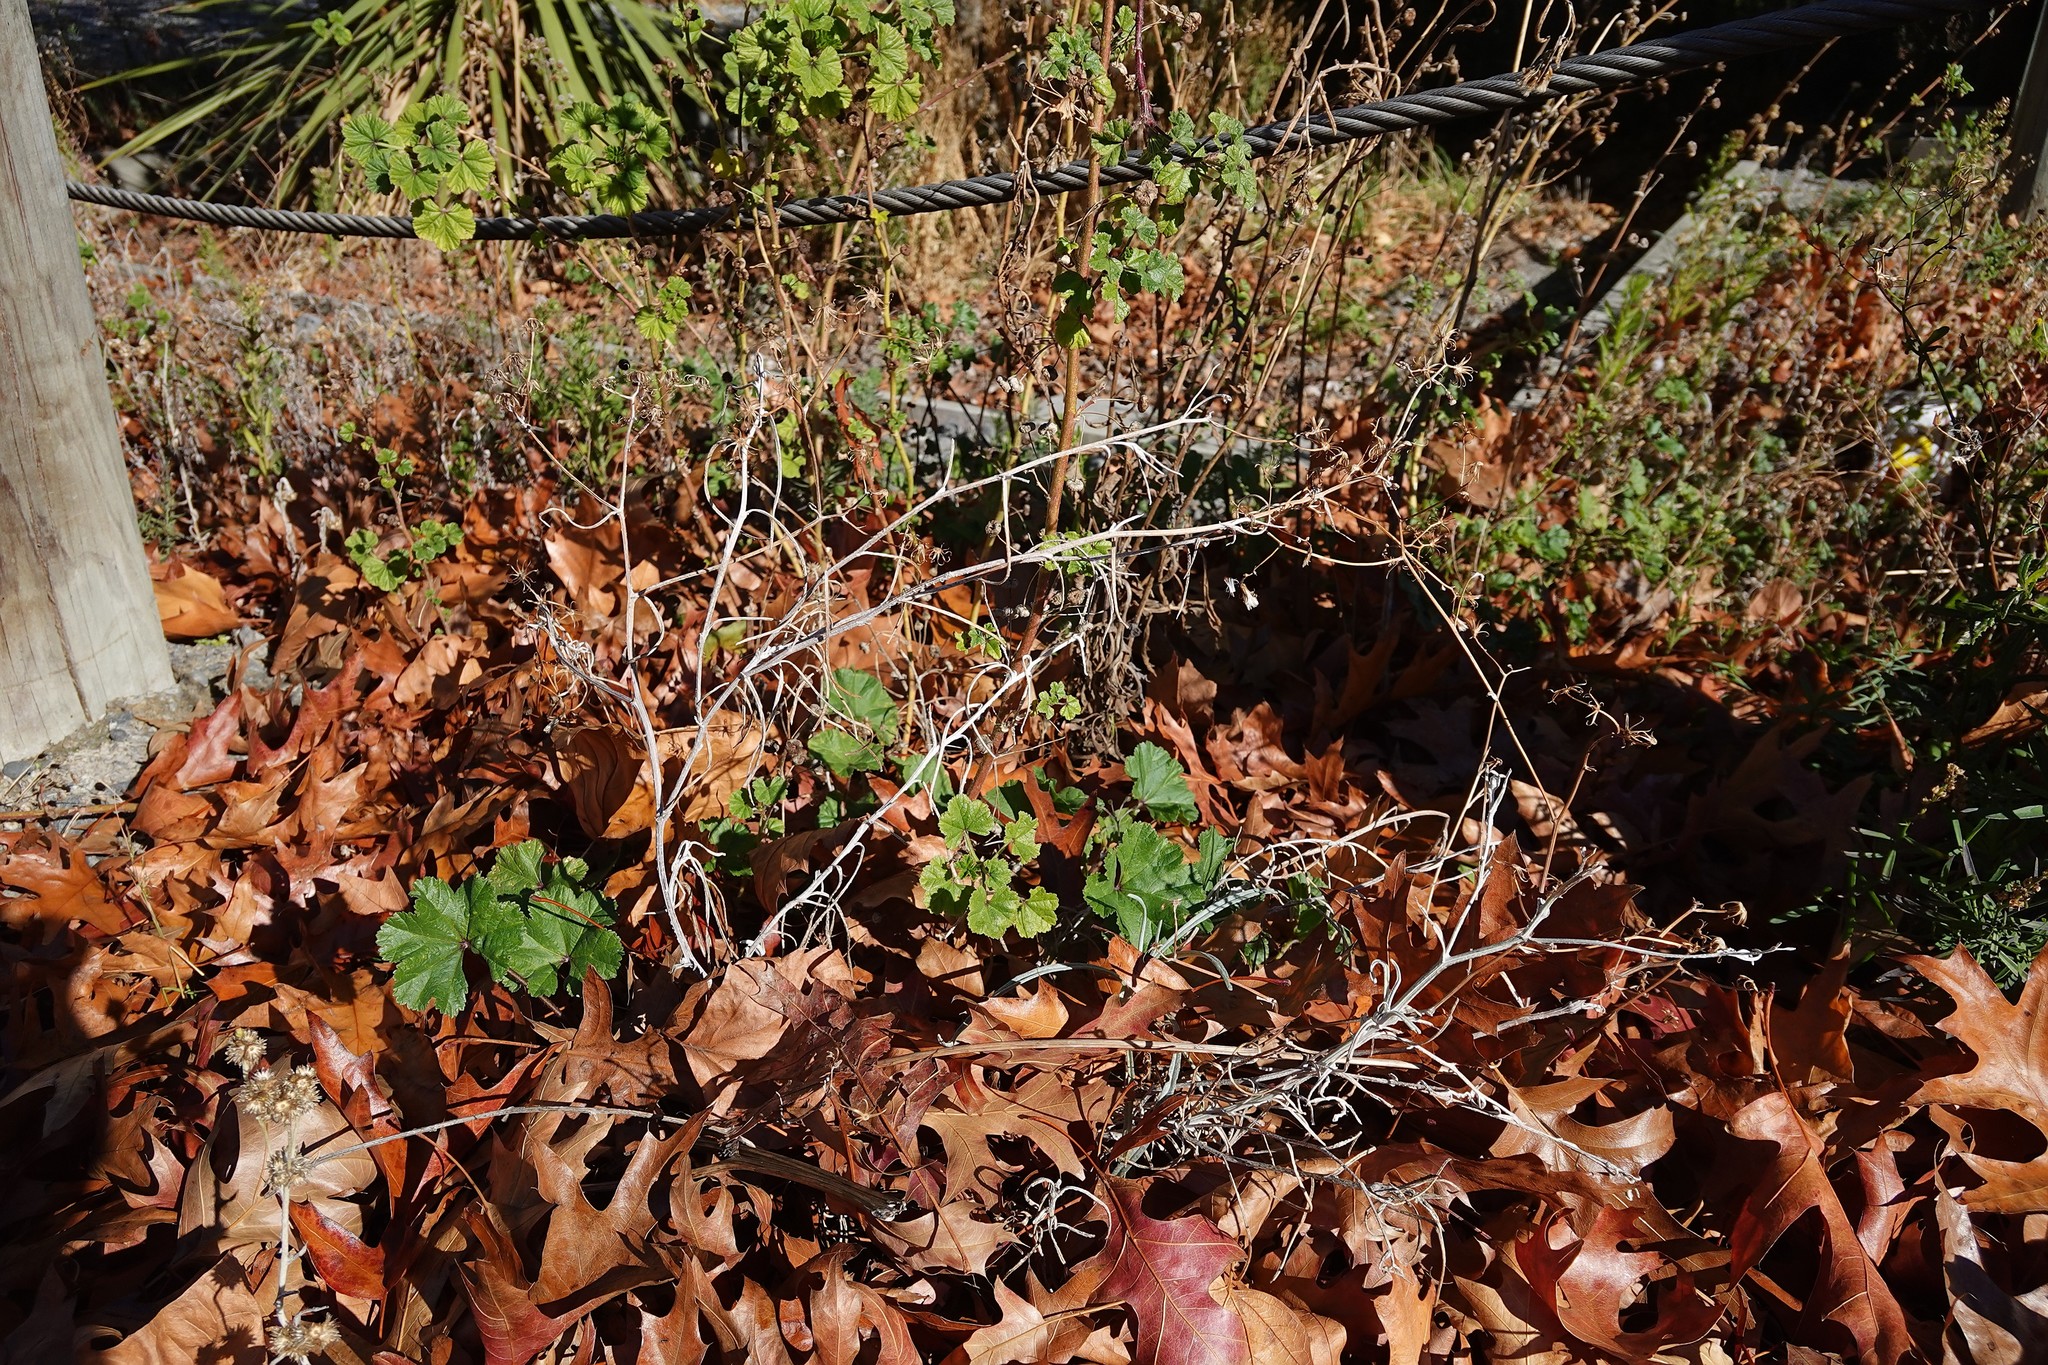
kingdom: Plantae
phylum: Tracheophyta
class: Magnoliopsida
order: Asterales
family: Asteraceae
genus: Senecio
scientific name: Senecio quadridentatus
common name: Cotton fireweed
